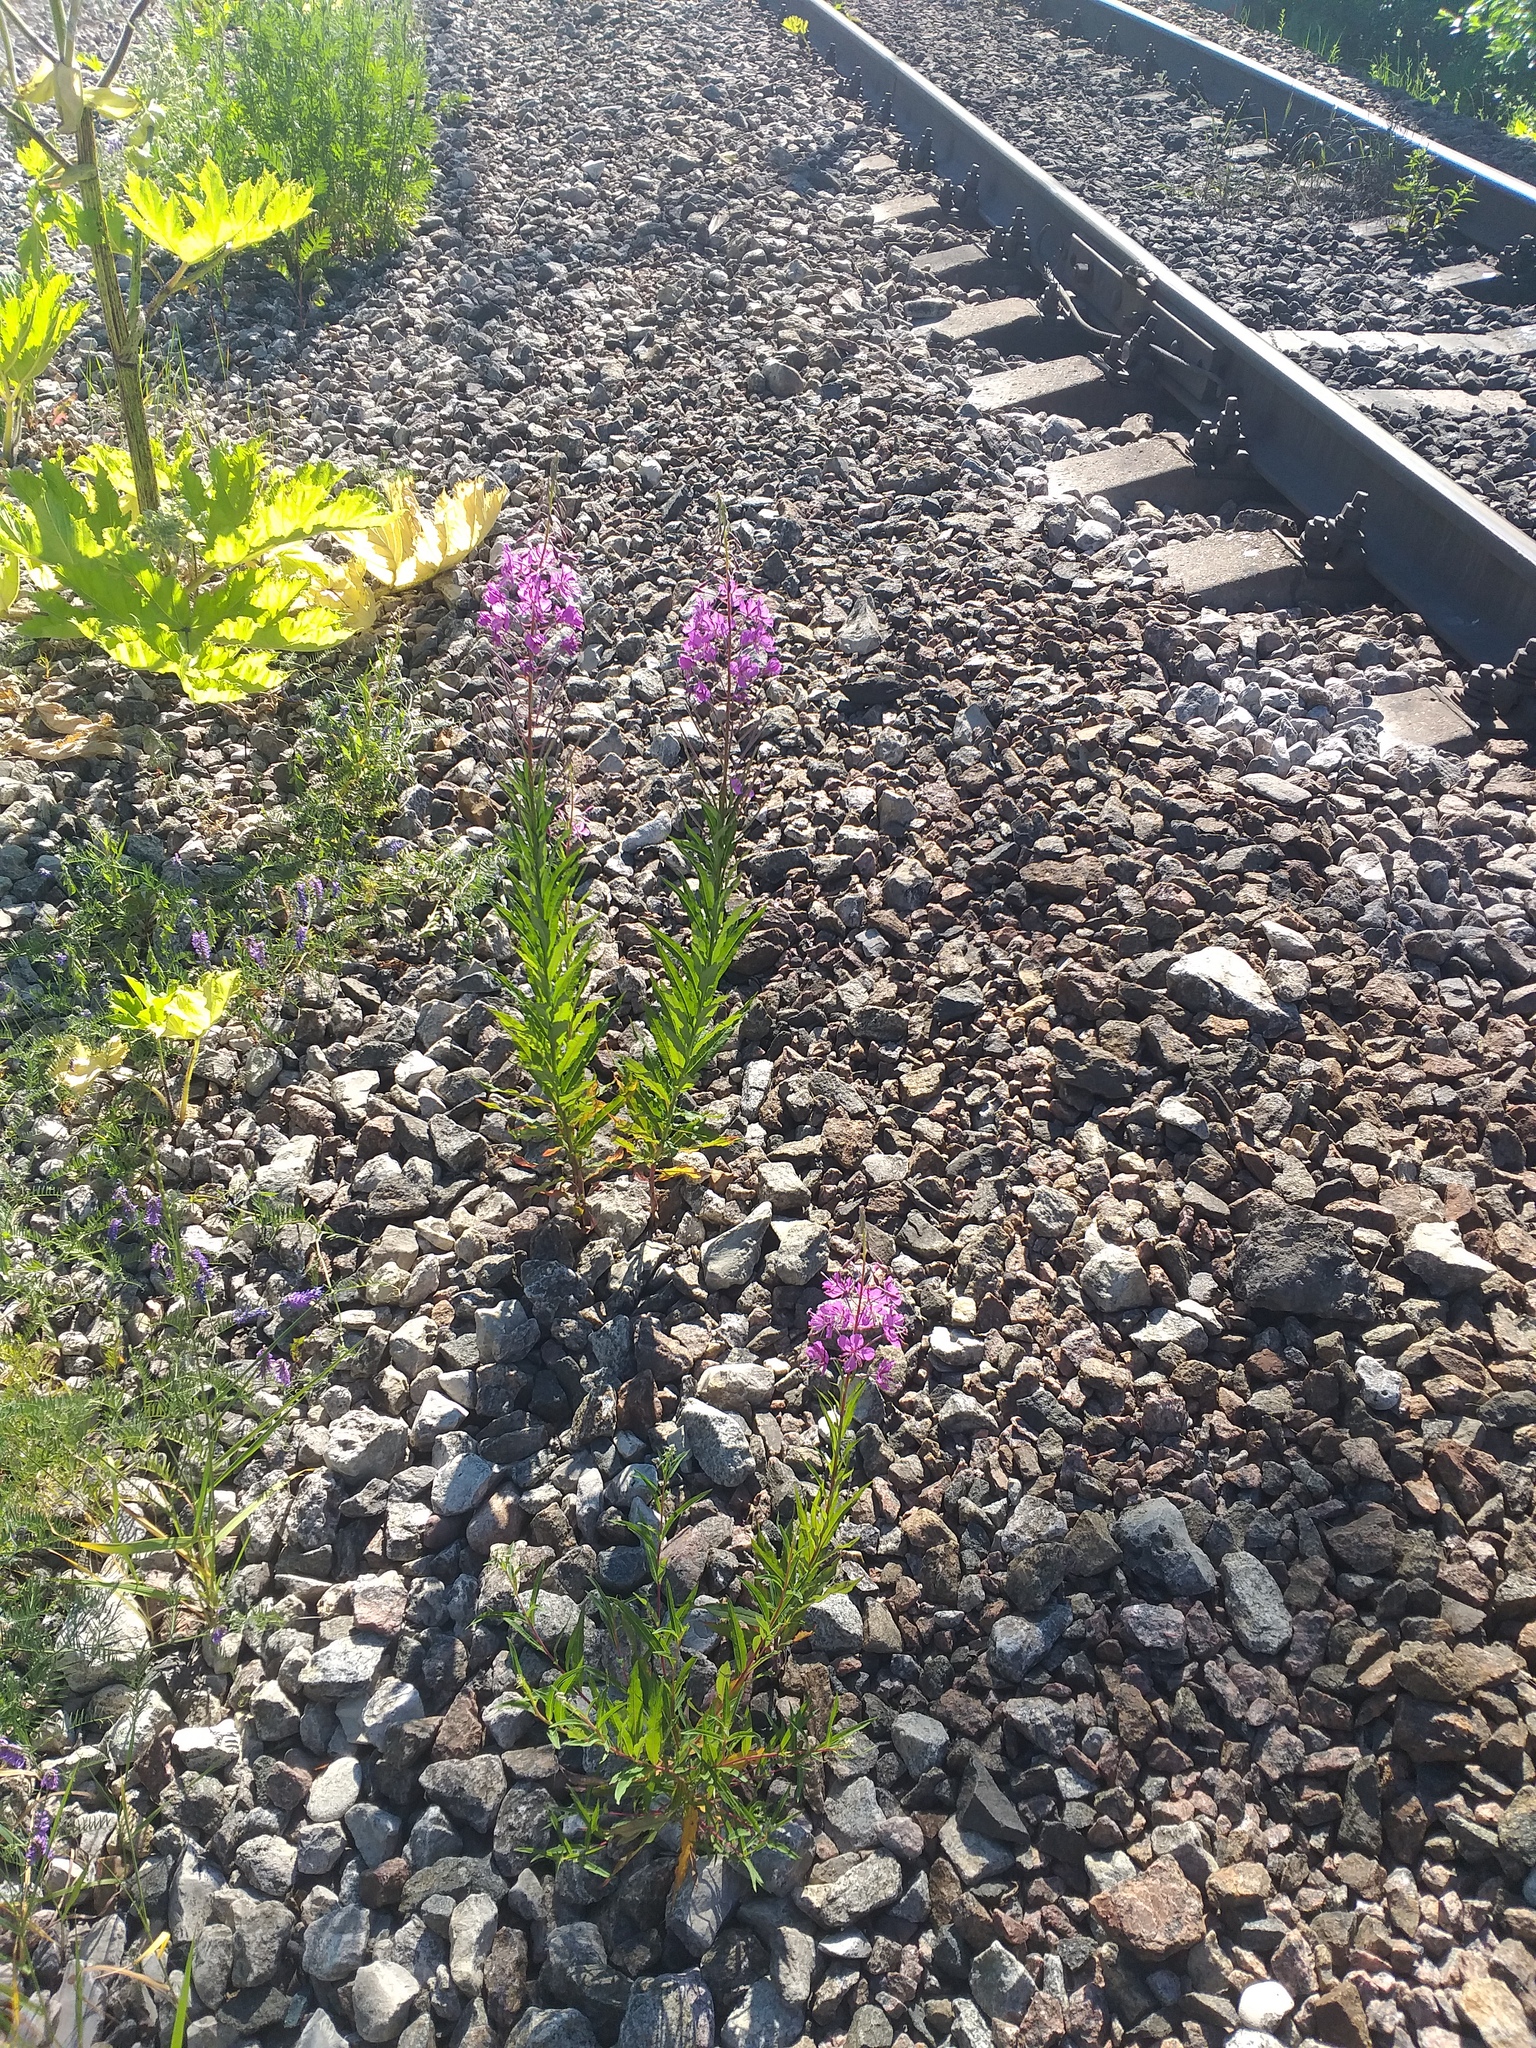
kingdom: Plantae
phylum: Tracheophyta
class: Magnoliopsida
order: Myrtales
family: Onagraceae
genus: Chamaenerion
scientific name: Chamaenerion angustifolium
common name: Fireweed
